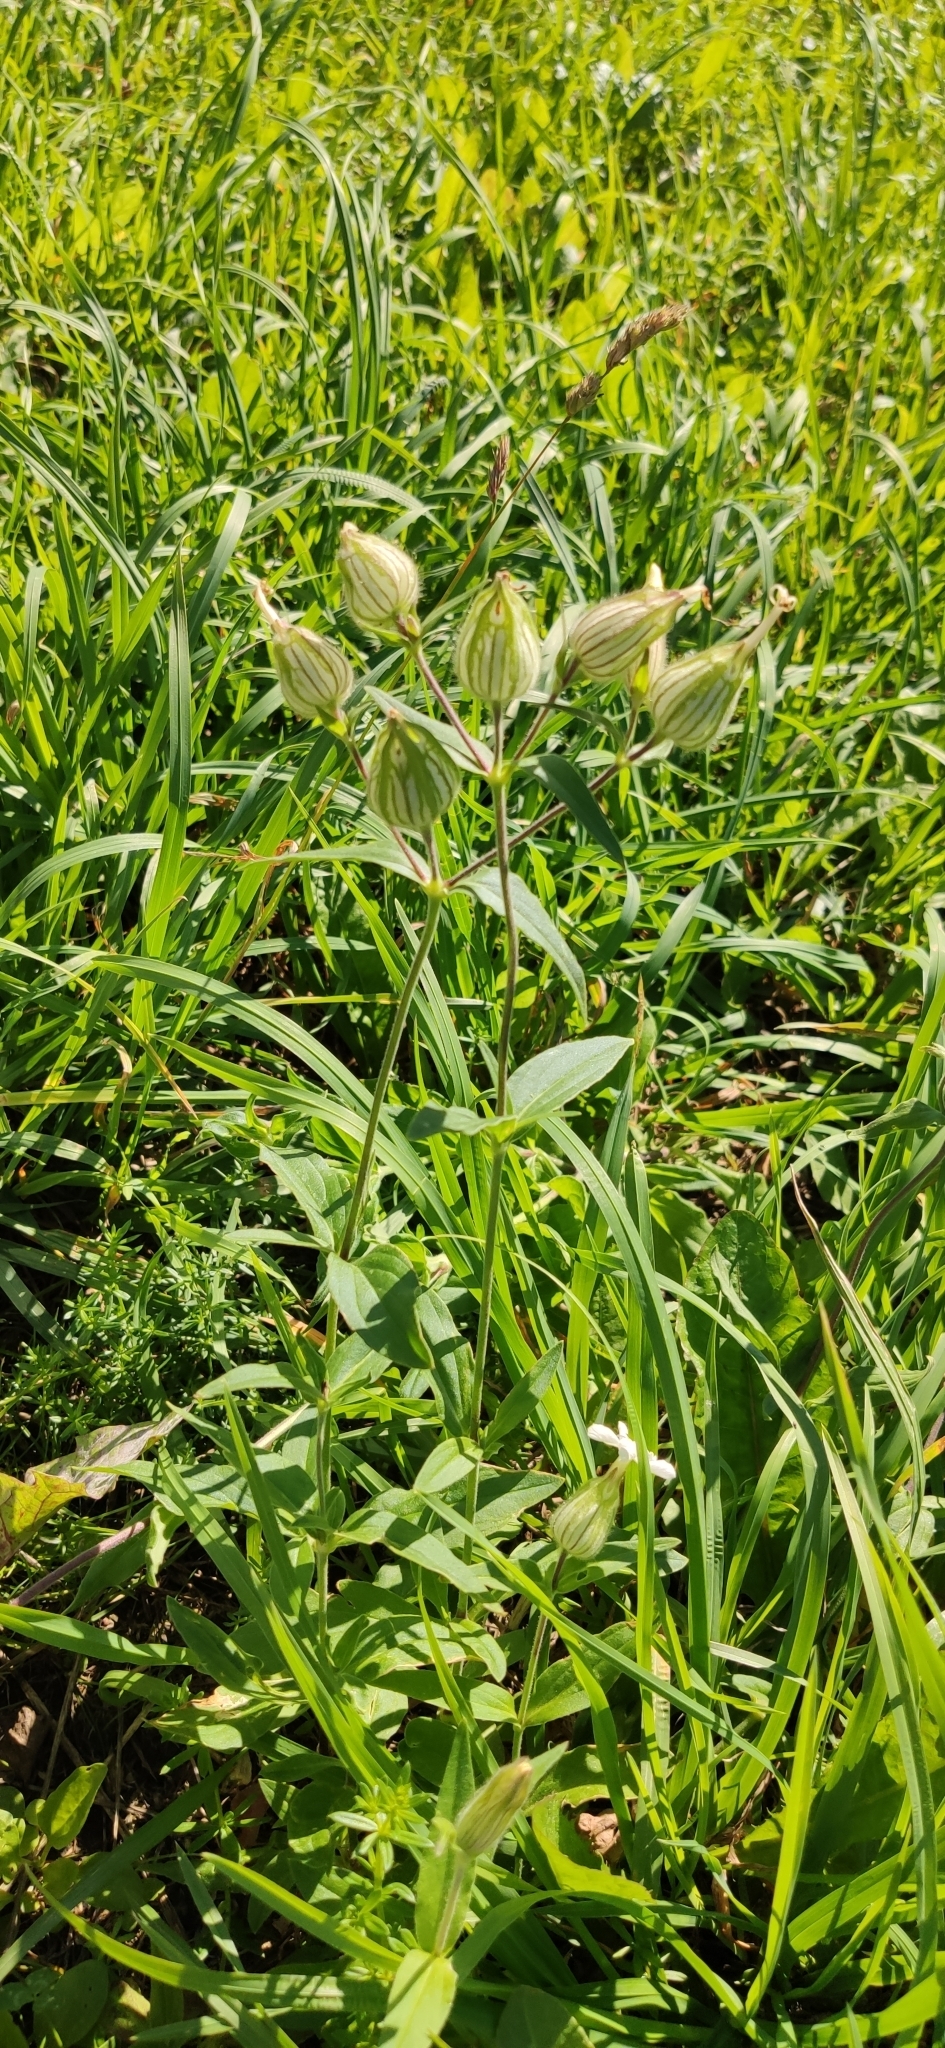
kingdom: Plantae
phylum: Tracheophyta
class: Magnoliopsida
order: Caryophyllales
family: Caryophyllaceae
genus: Silene
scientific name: Silene latifolia
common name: White campion
